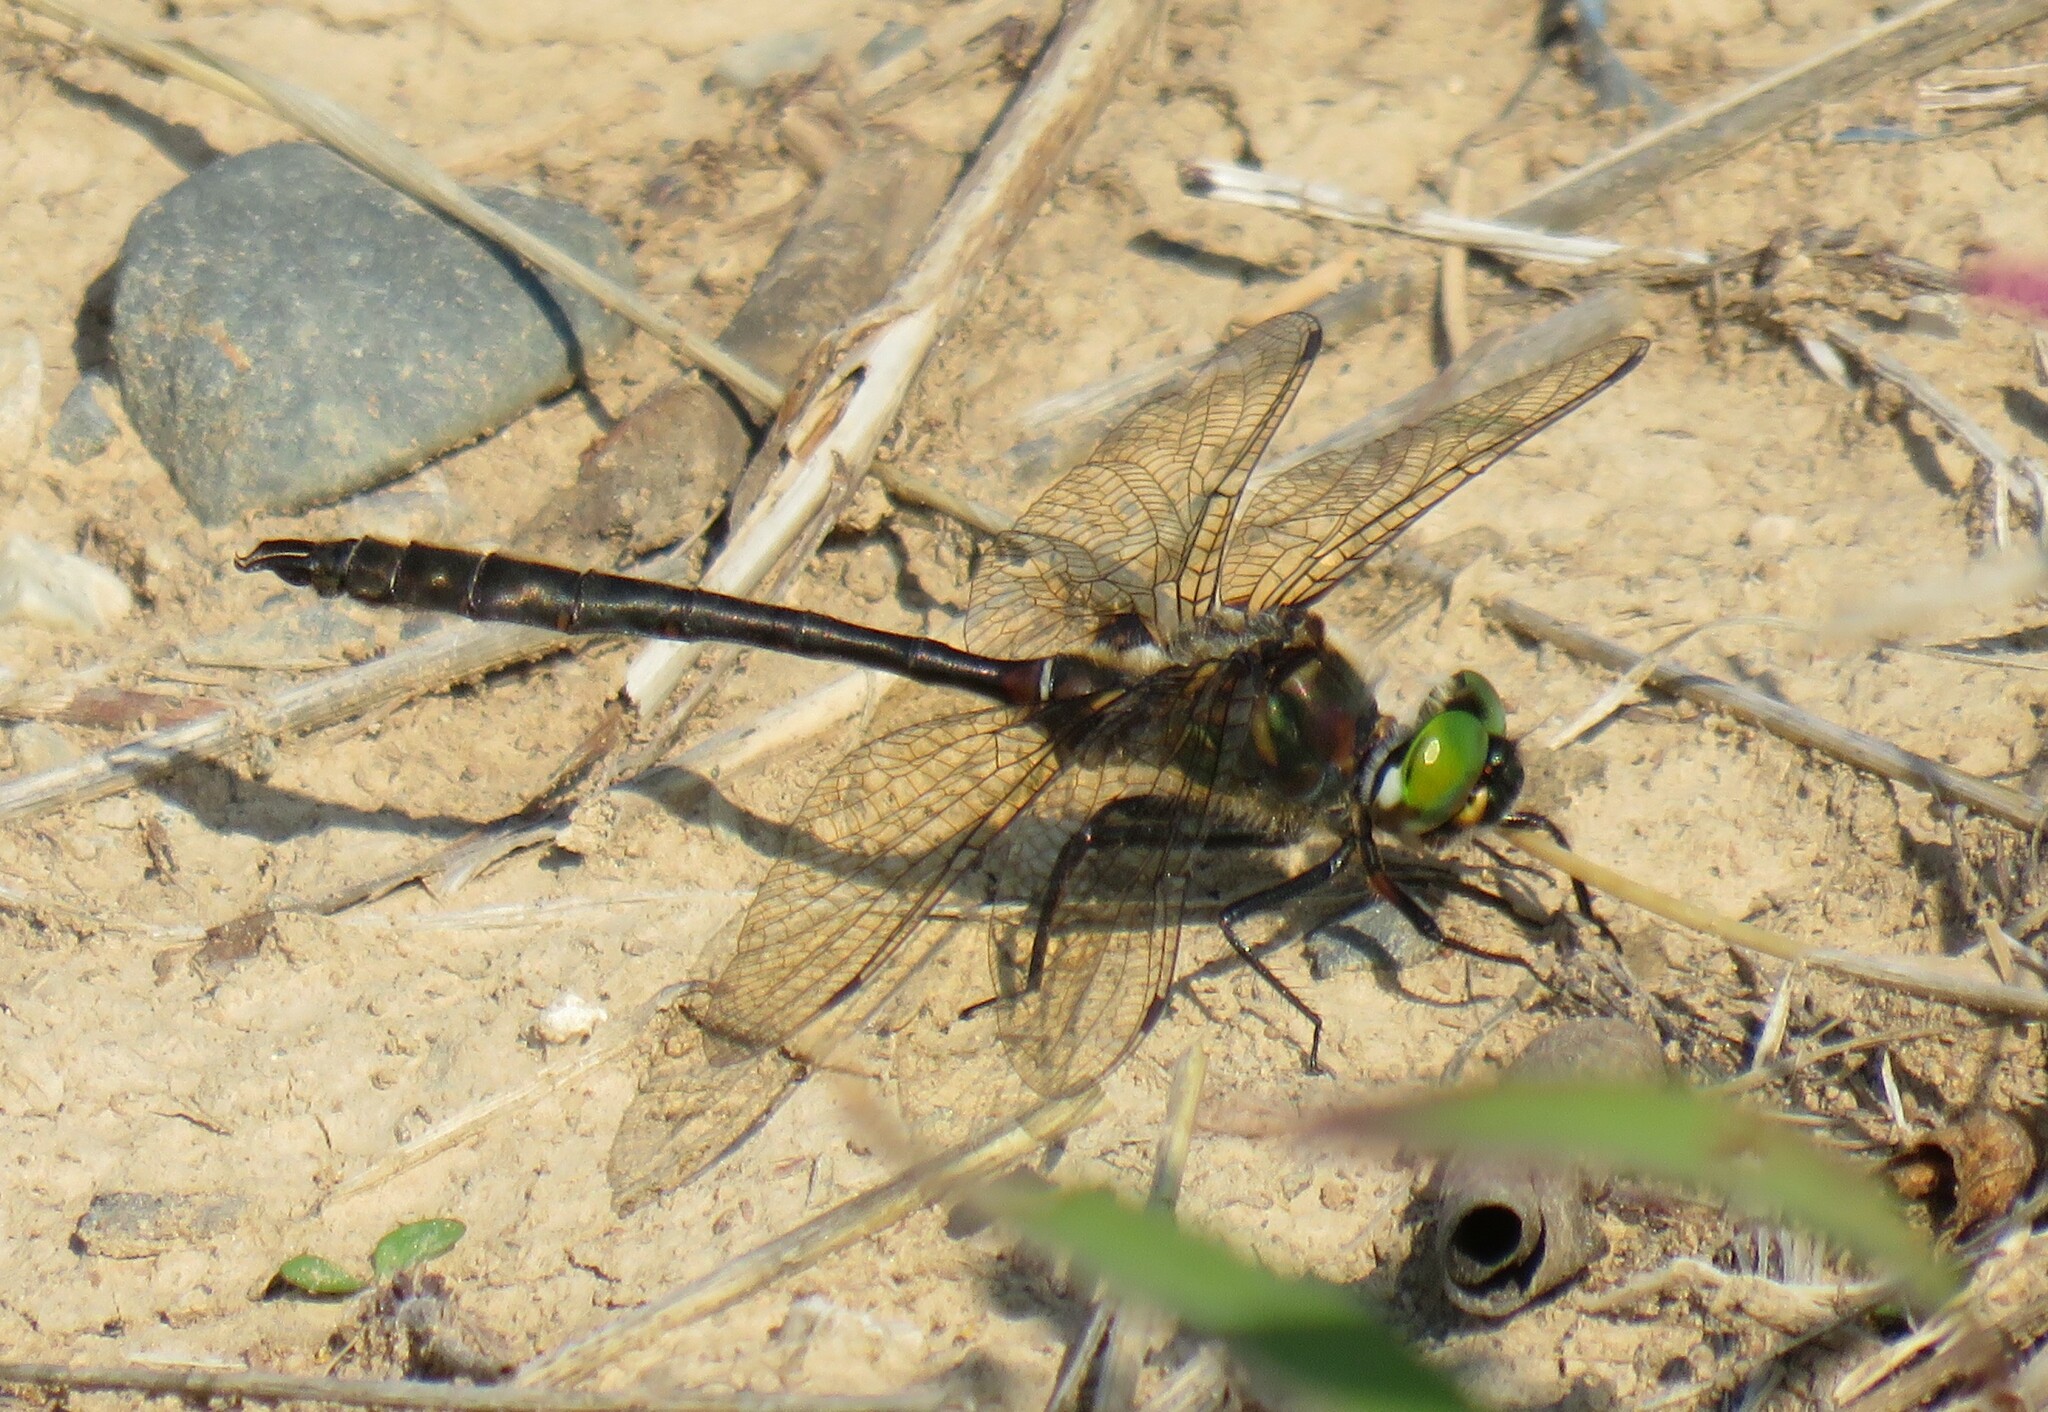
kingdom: Animalia
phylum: Arthropoda
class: Insecta
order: Odonata
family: Corduliidae
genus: Somatochlora
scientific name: Somatochlora septentrionalis
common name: Muskeg emerald
